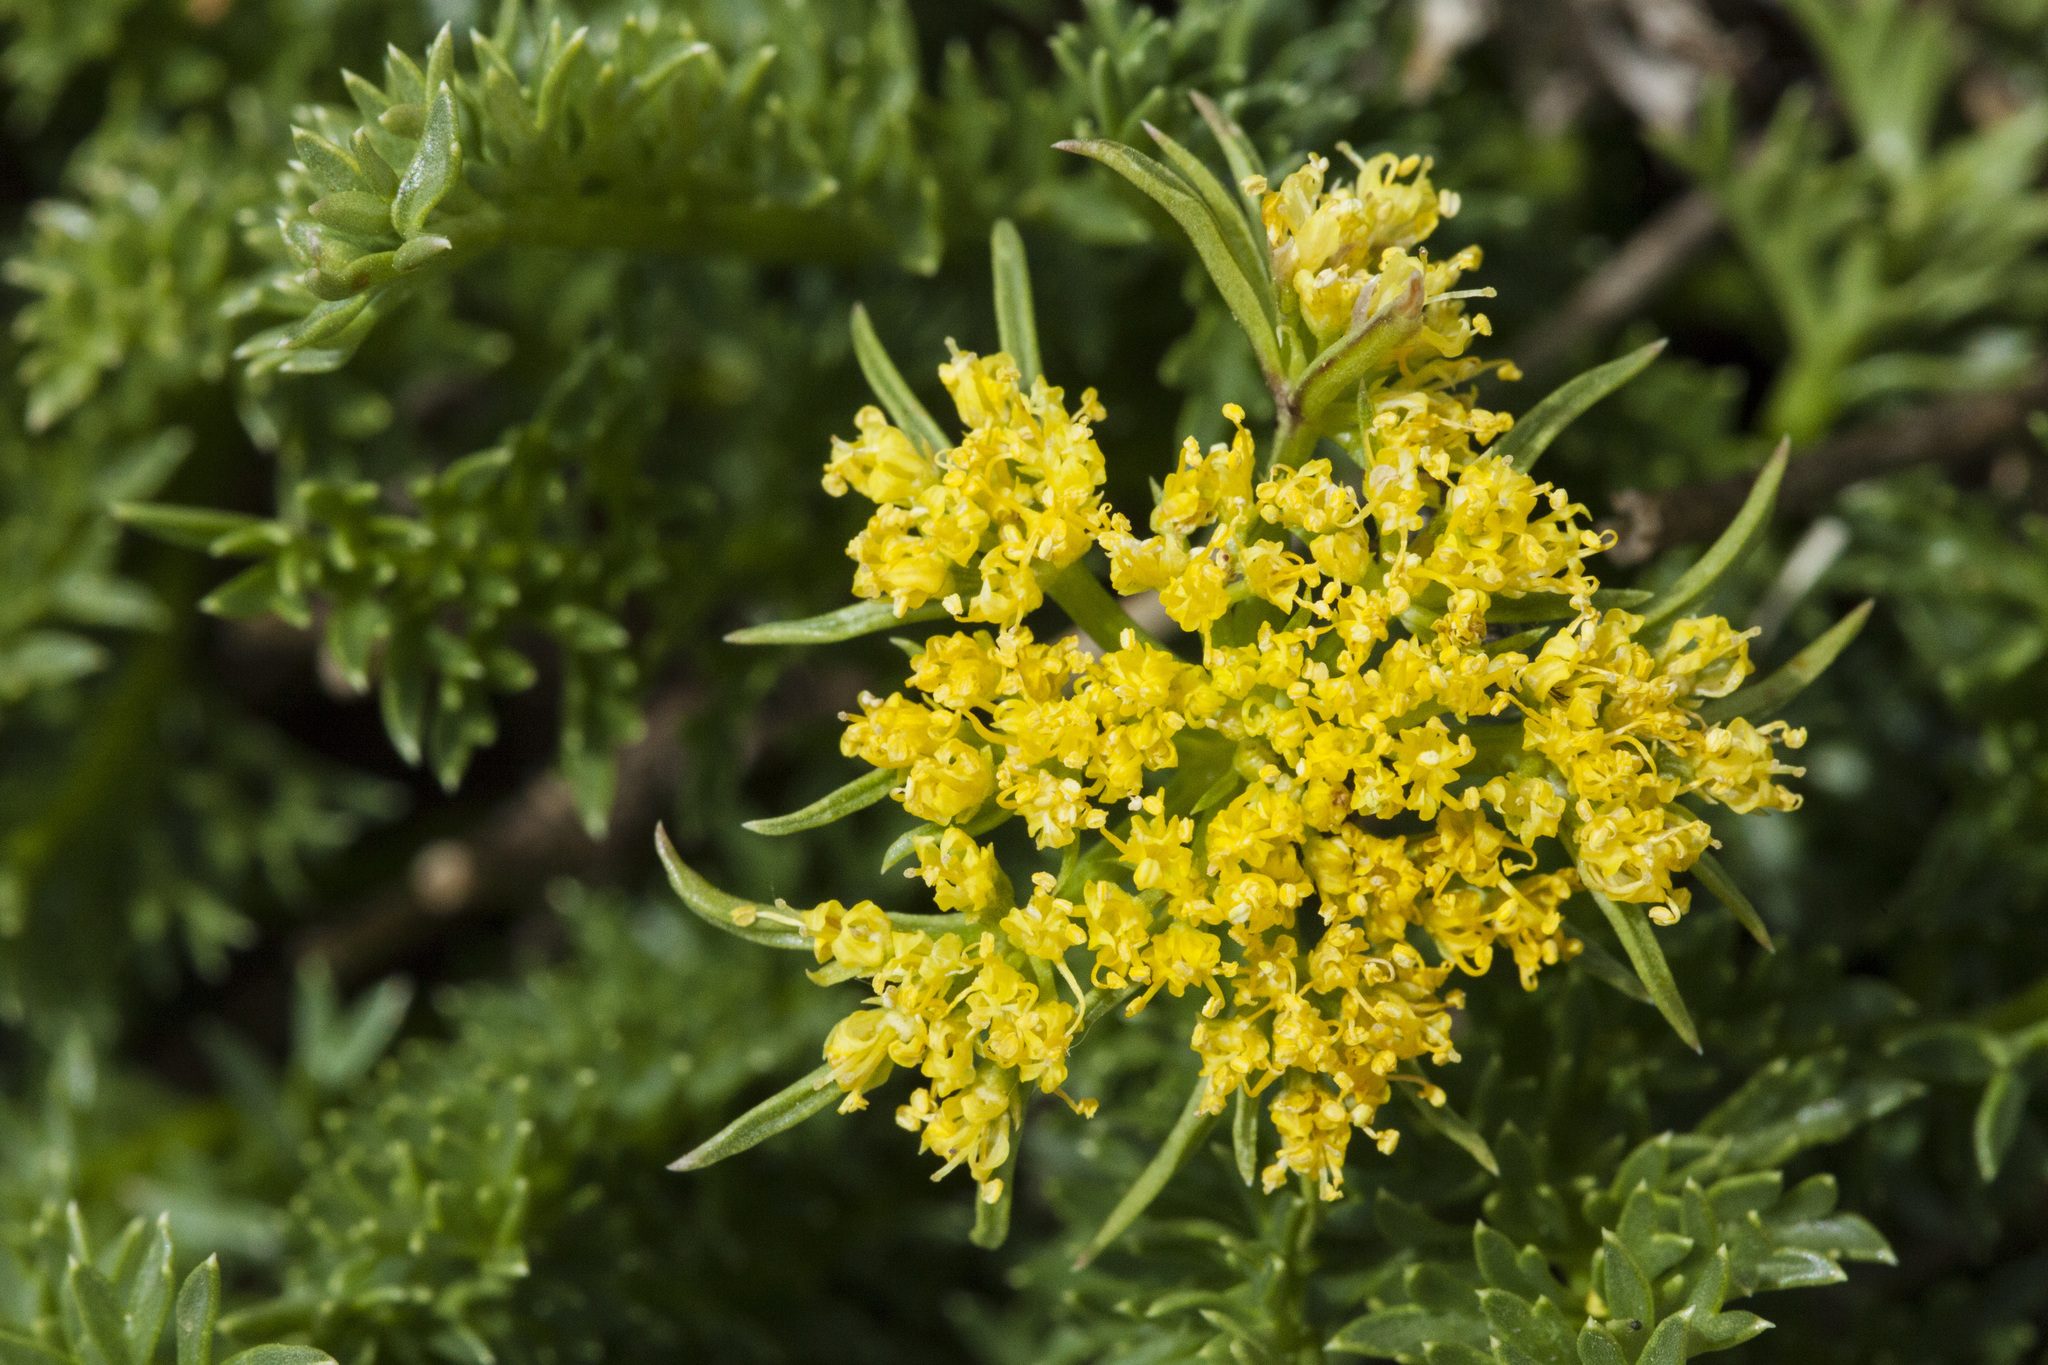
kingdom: Plantae
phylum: Tracheophyta
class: Magnoliopsida
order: Apiales
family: Apiaceae
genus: Pteryxia
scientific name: Pteryxia hendersonii
